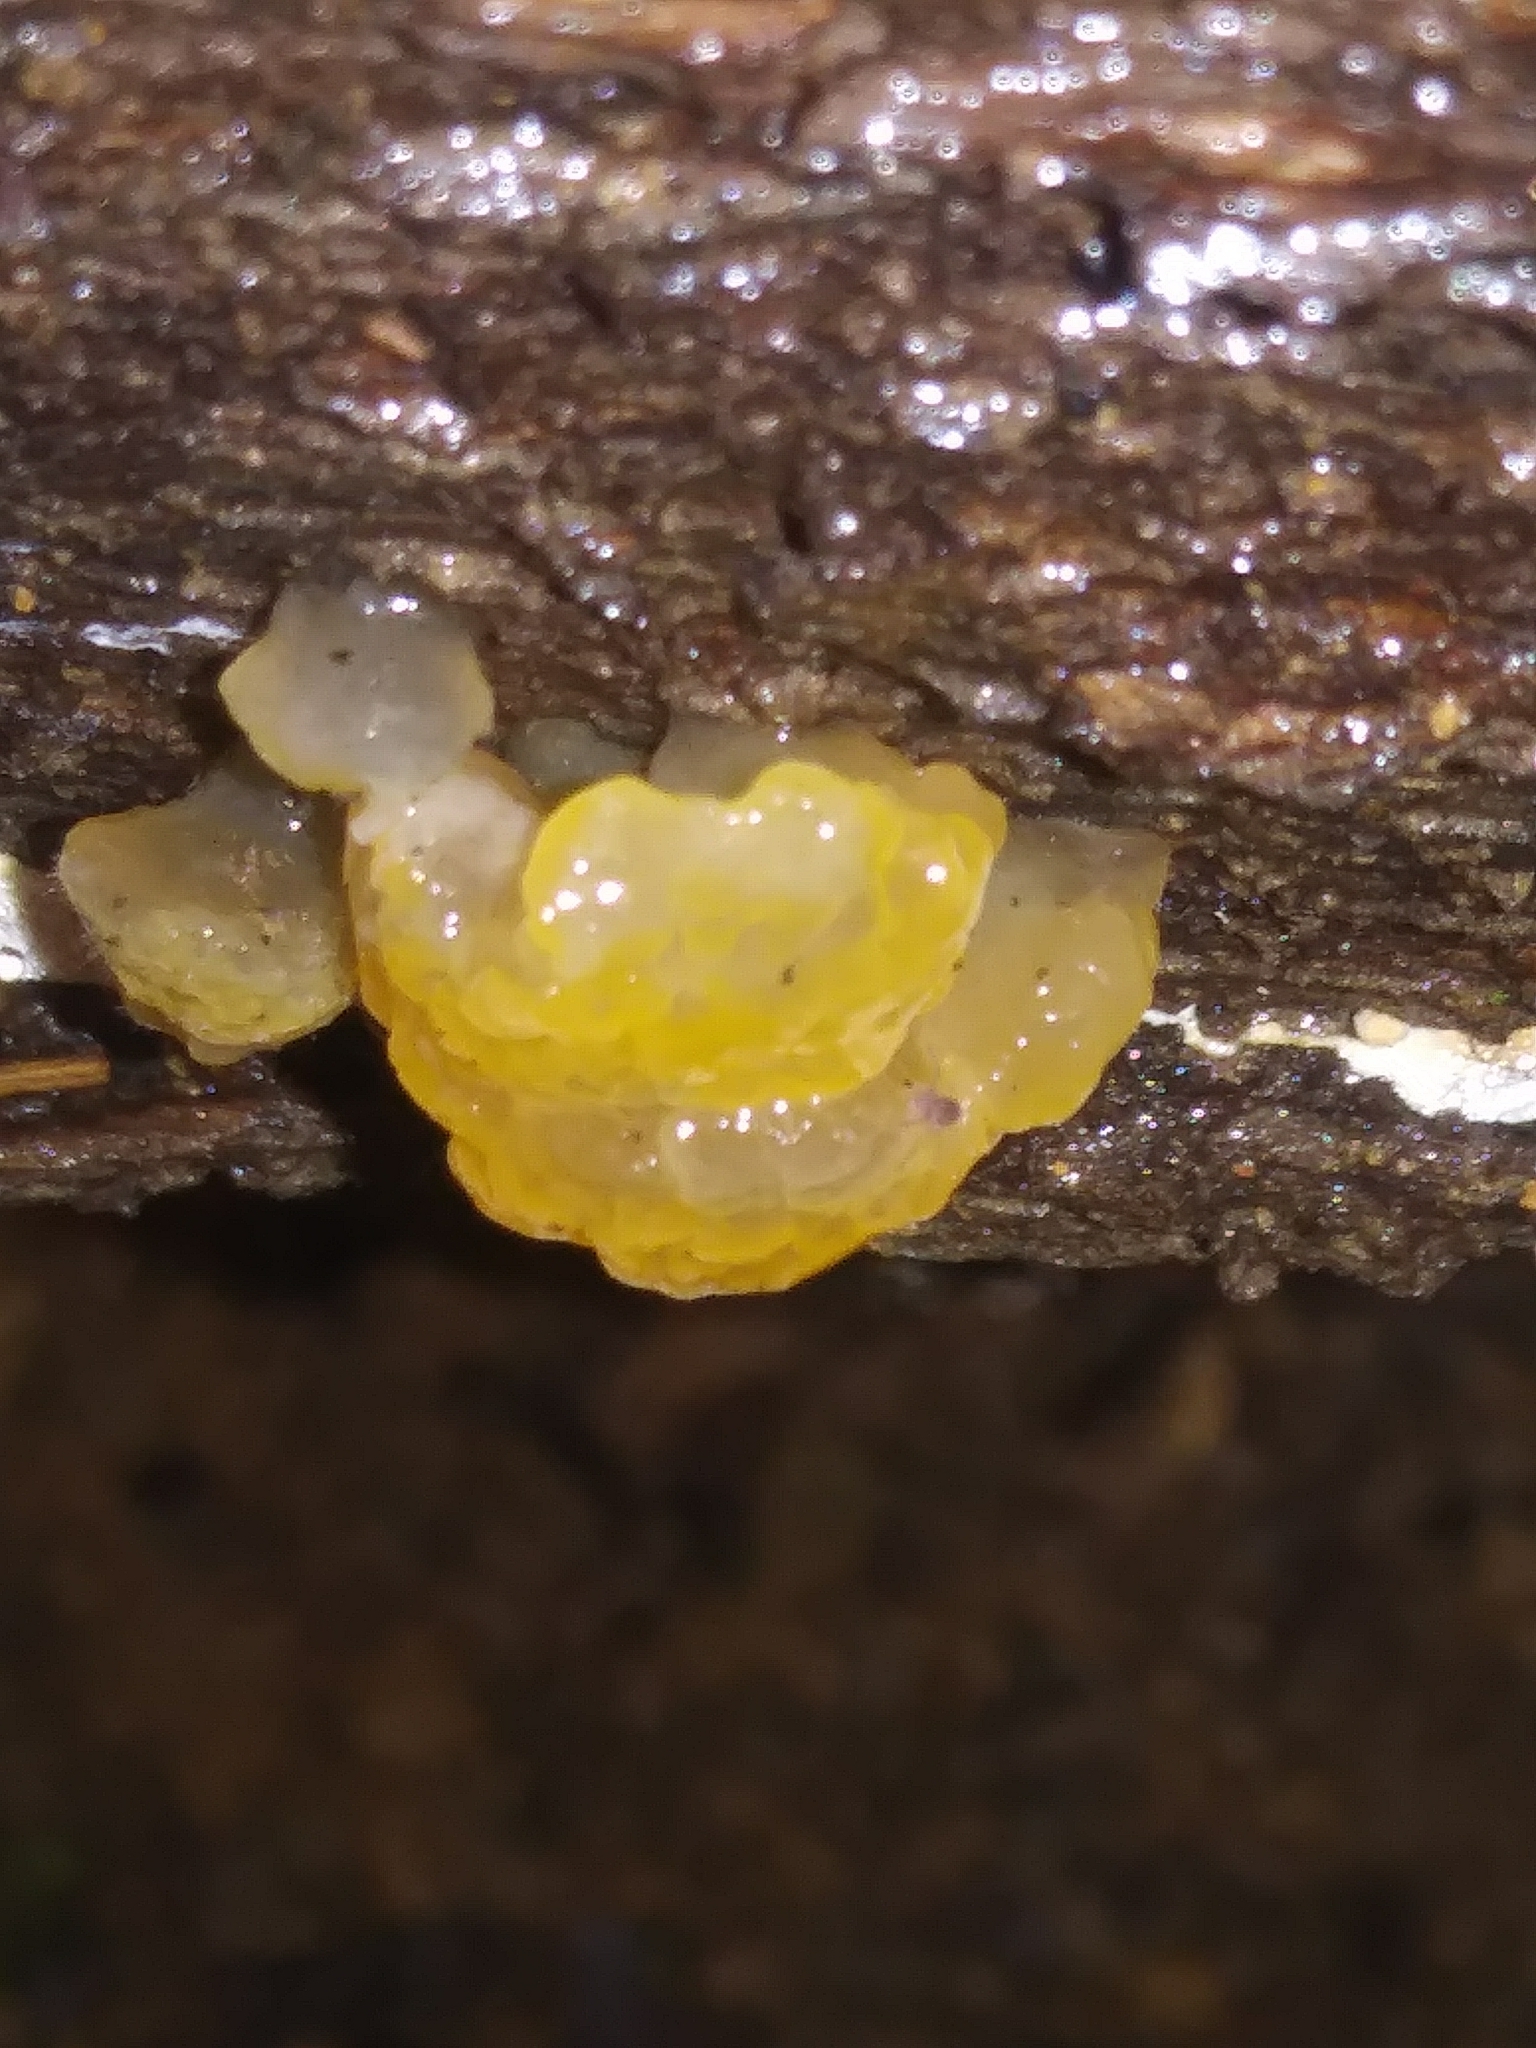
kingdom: Fungi
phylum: Basidiomycota
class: Tremellomycetes
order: Tremellales
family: Tremellaceae
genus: Tremella
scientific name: Tremella mesenterica
